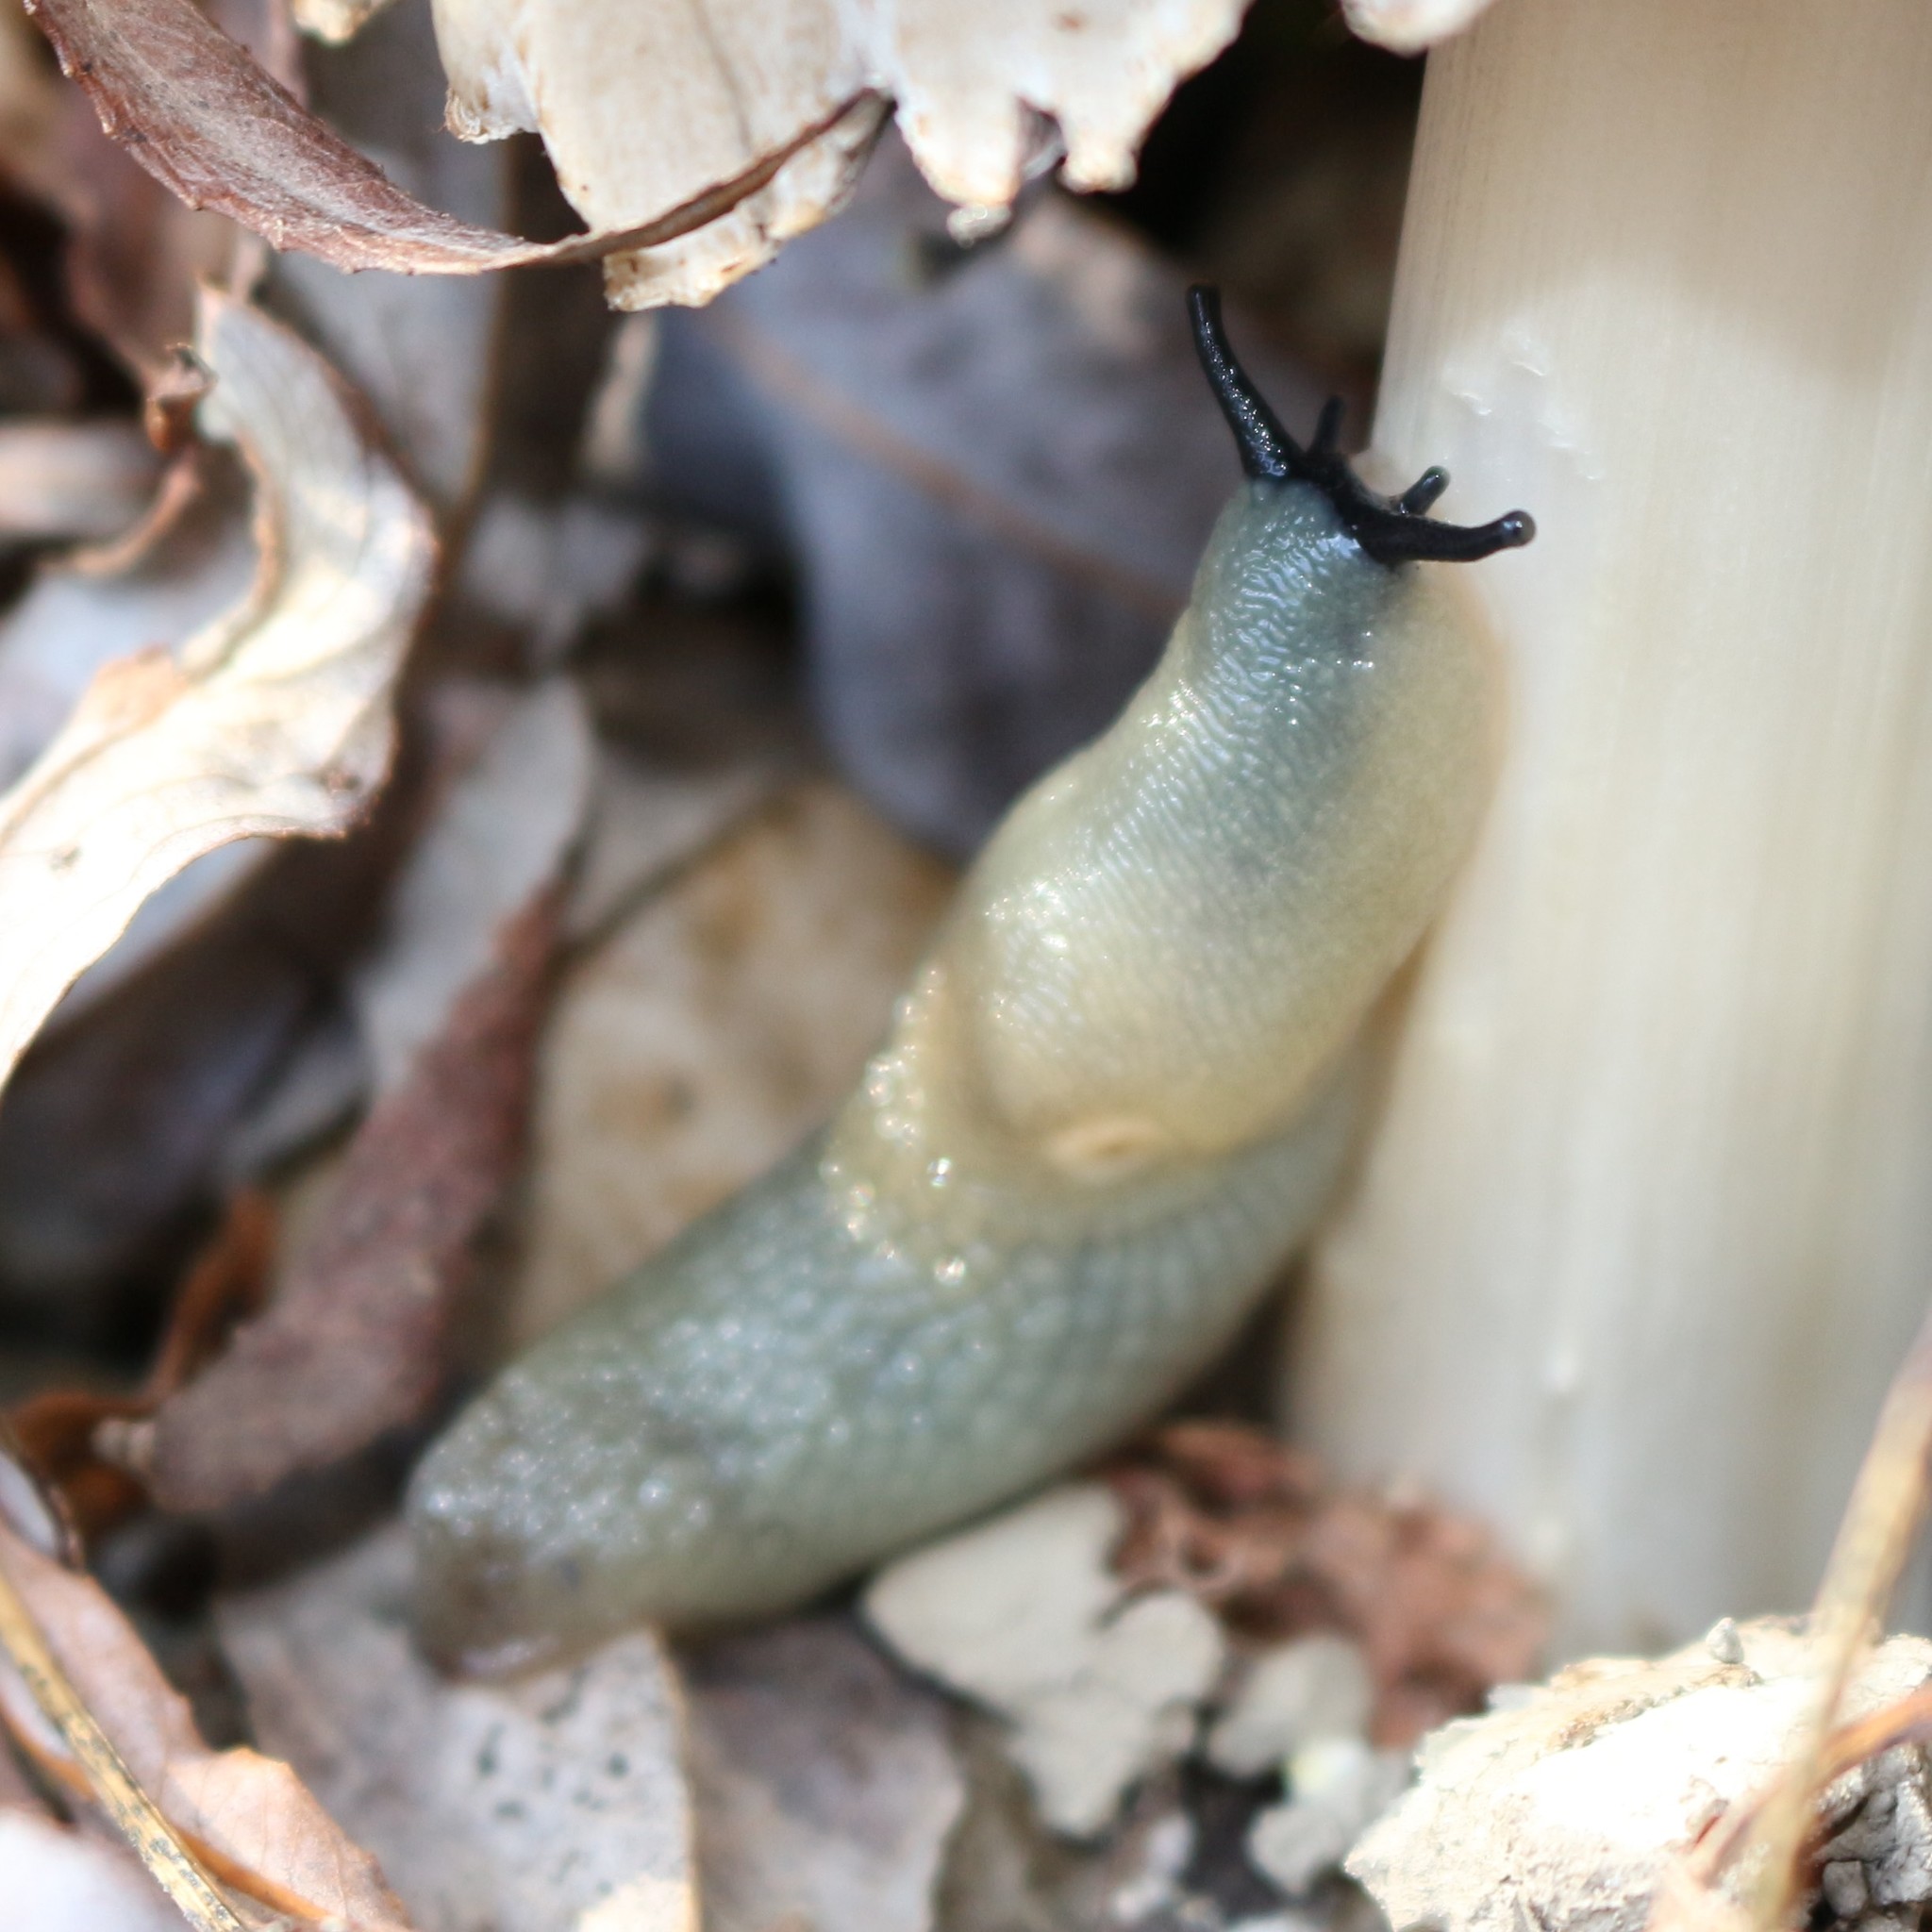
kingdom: Animalia
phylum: Mollusca
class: Gastropoda
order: Stylommatophora
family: Agriolimacidae
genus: Krynickillus
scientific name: Krynickillus melanocephalus
